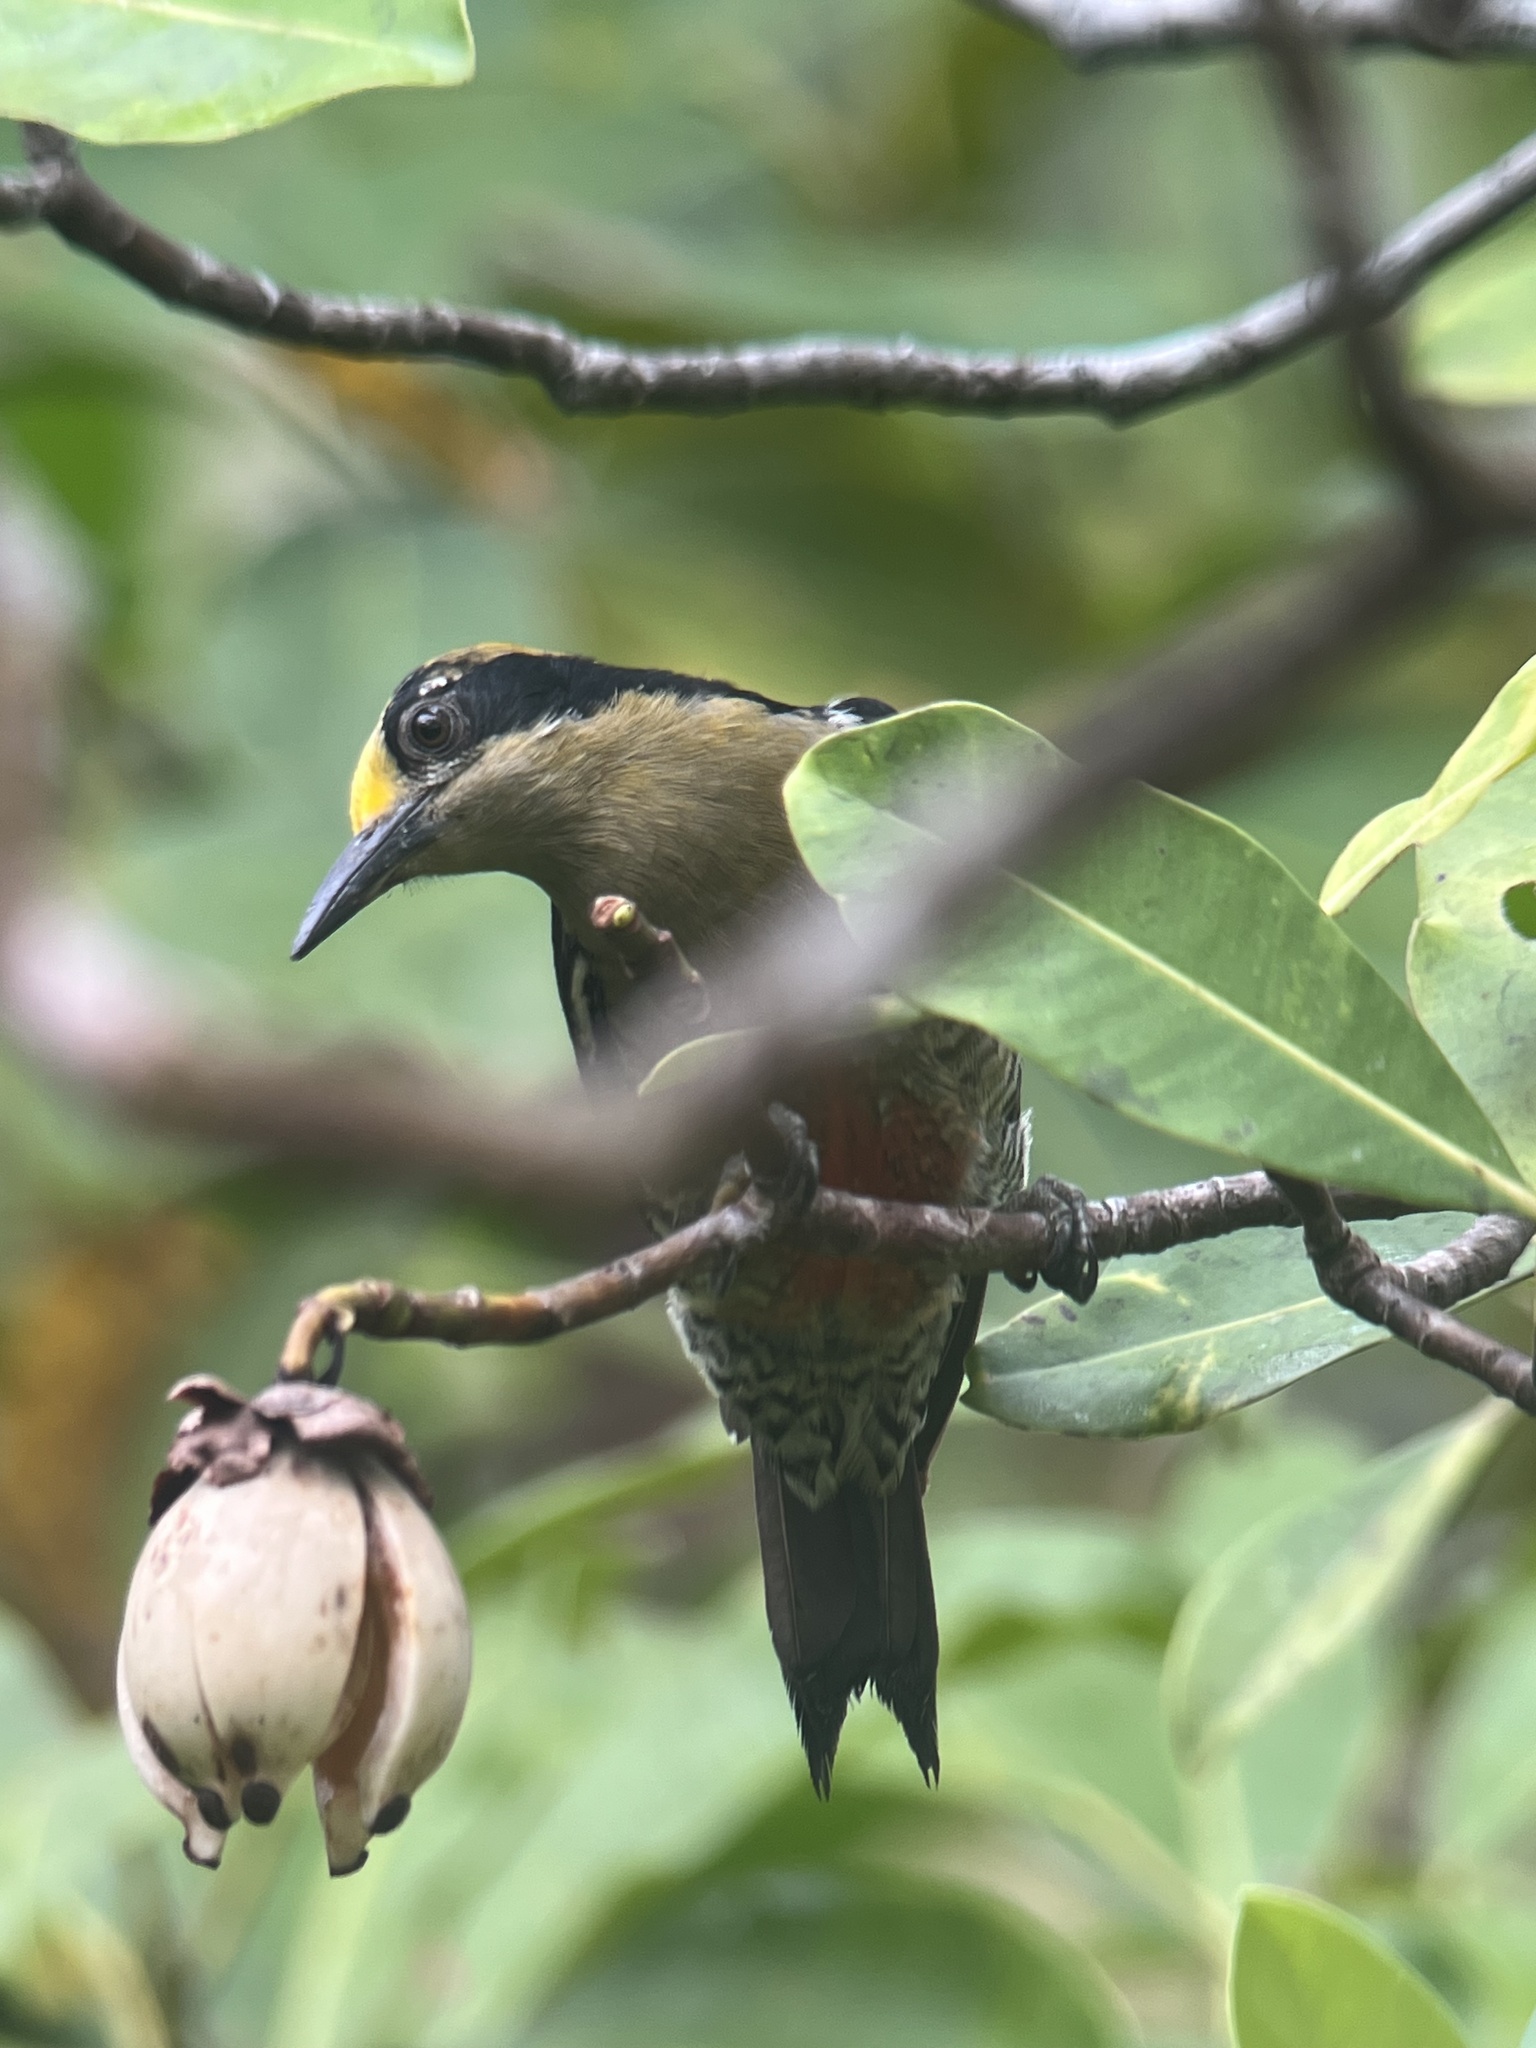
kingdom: Animalia
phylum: Chordata
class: Aves
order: Piciformes
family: Picidae
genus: Melanerpes
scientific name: Melanerpes chrysauchen
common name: Golden-naped woodpecker
